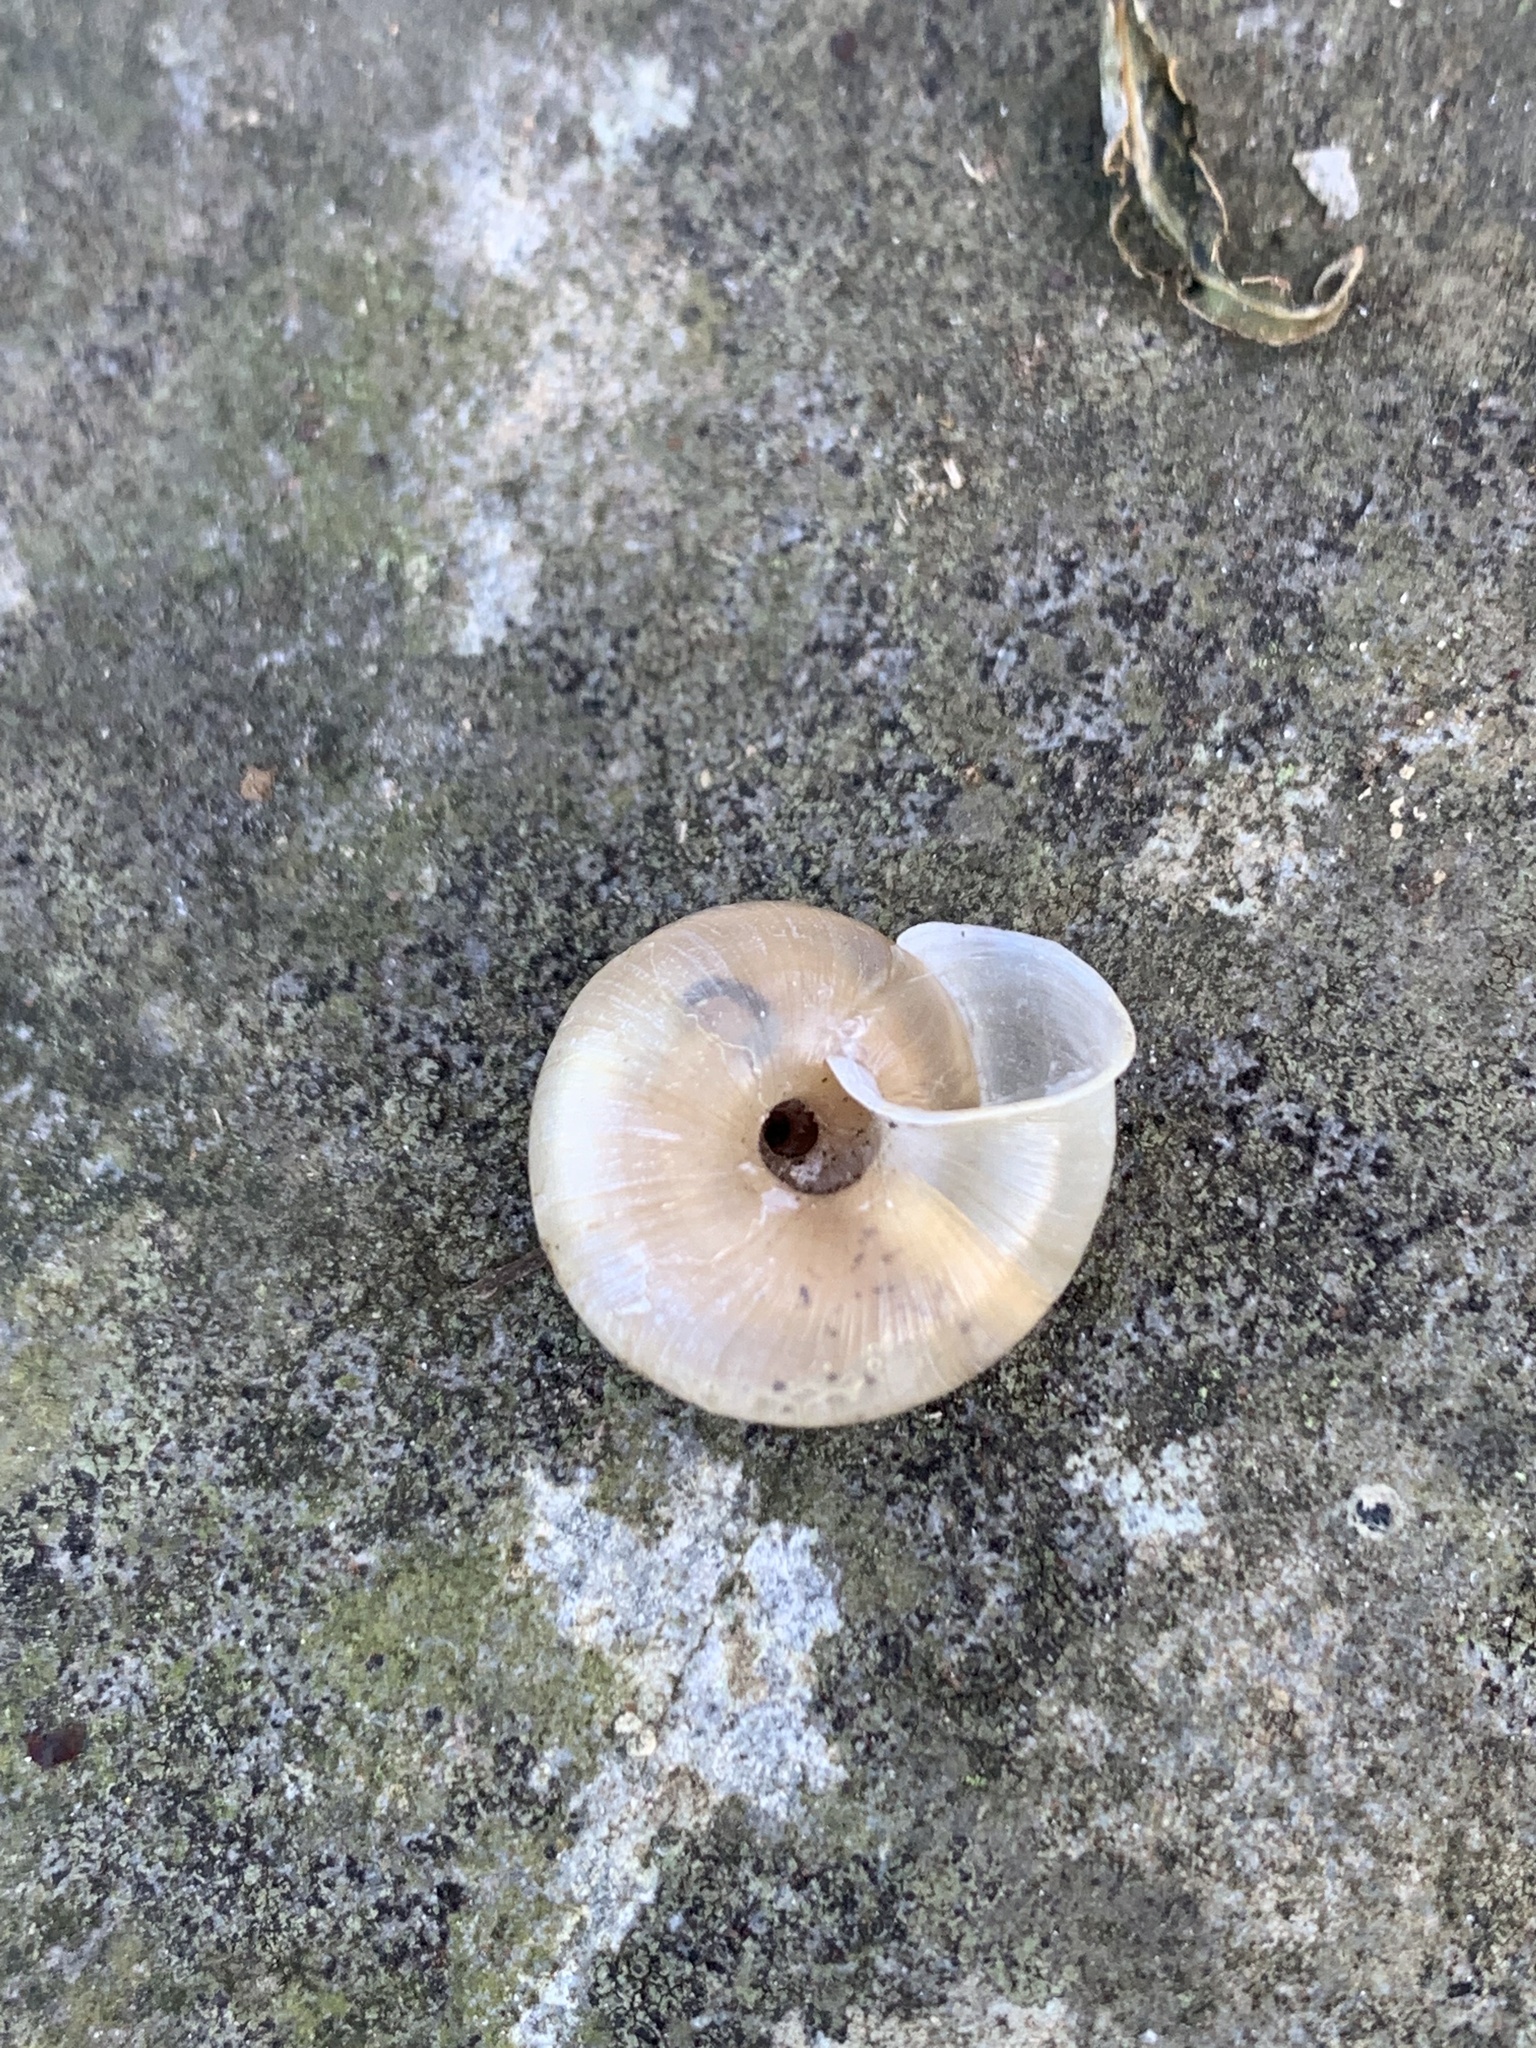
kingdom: Animalia
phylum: Mollusca
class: Gastropoda
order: Stylommatophora
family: Camaenidae
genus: Trishoplita
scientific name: Trishoplita hilgendorfi
